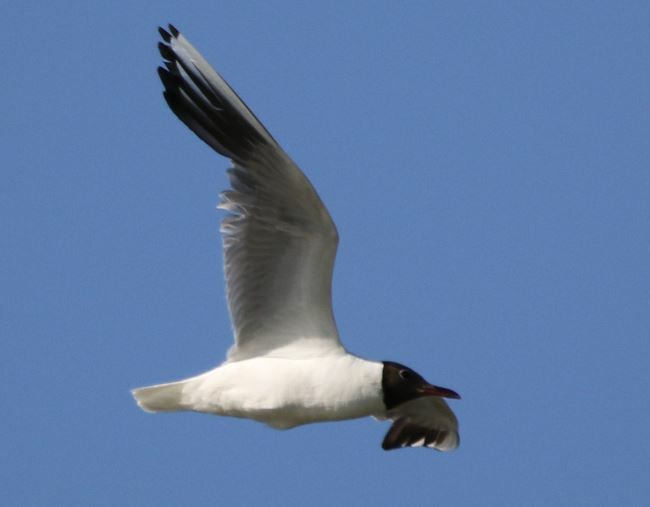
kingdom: Animalia
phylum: Chordata
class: Aves
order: Charadriiformes
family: Laridae
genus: Chroicocephalus
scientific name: Chroicocephalus ridibundus
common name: Black-headed gull
